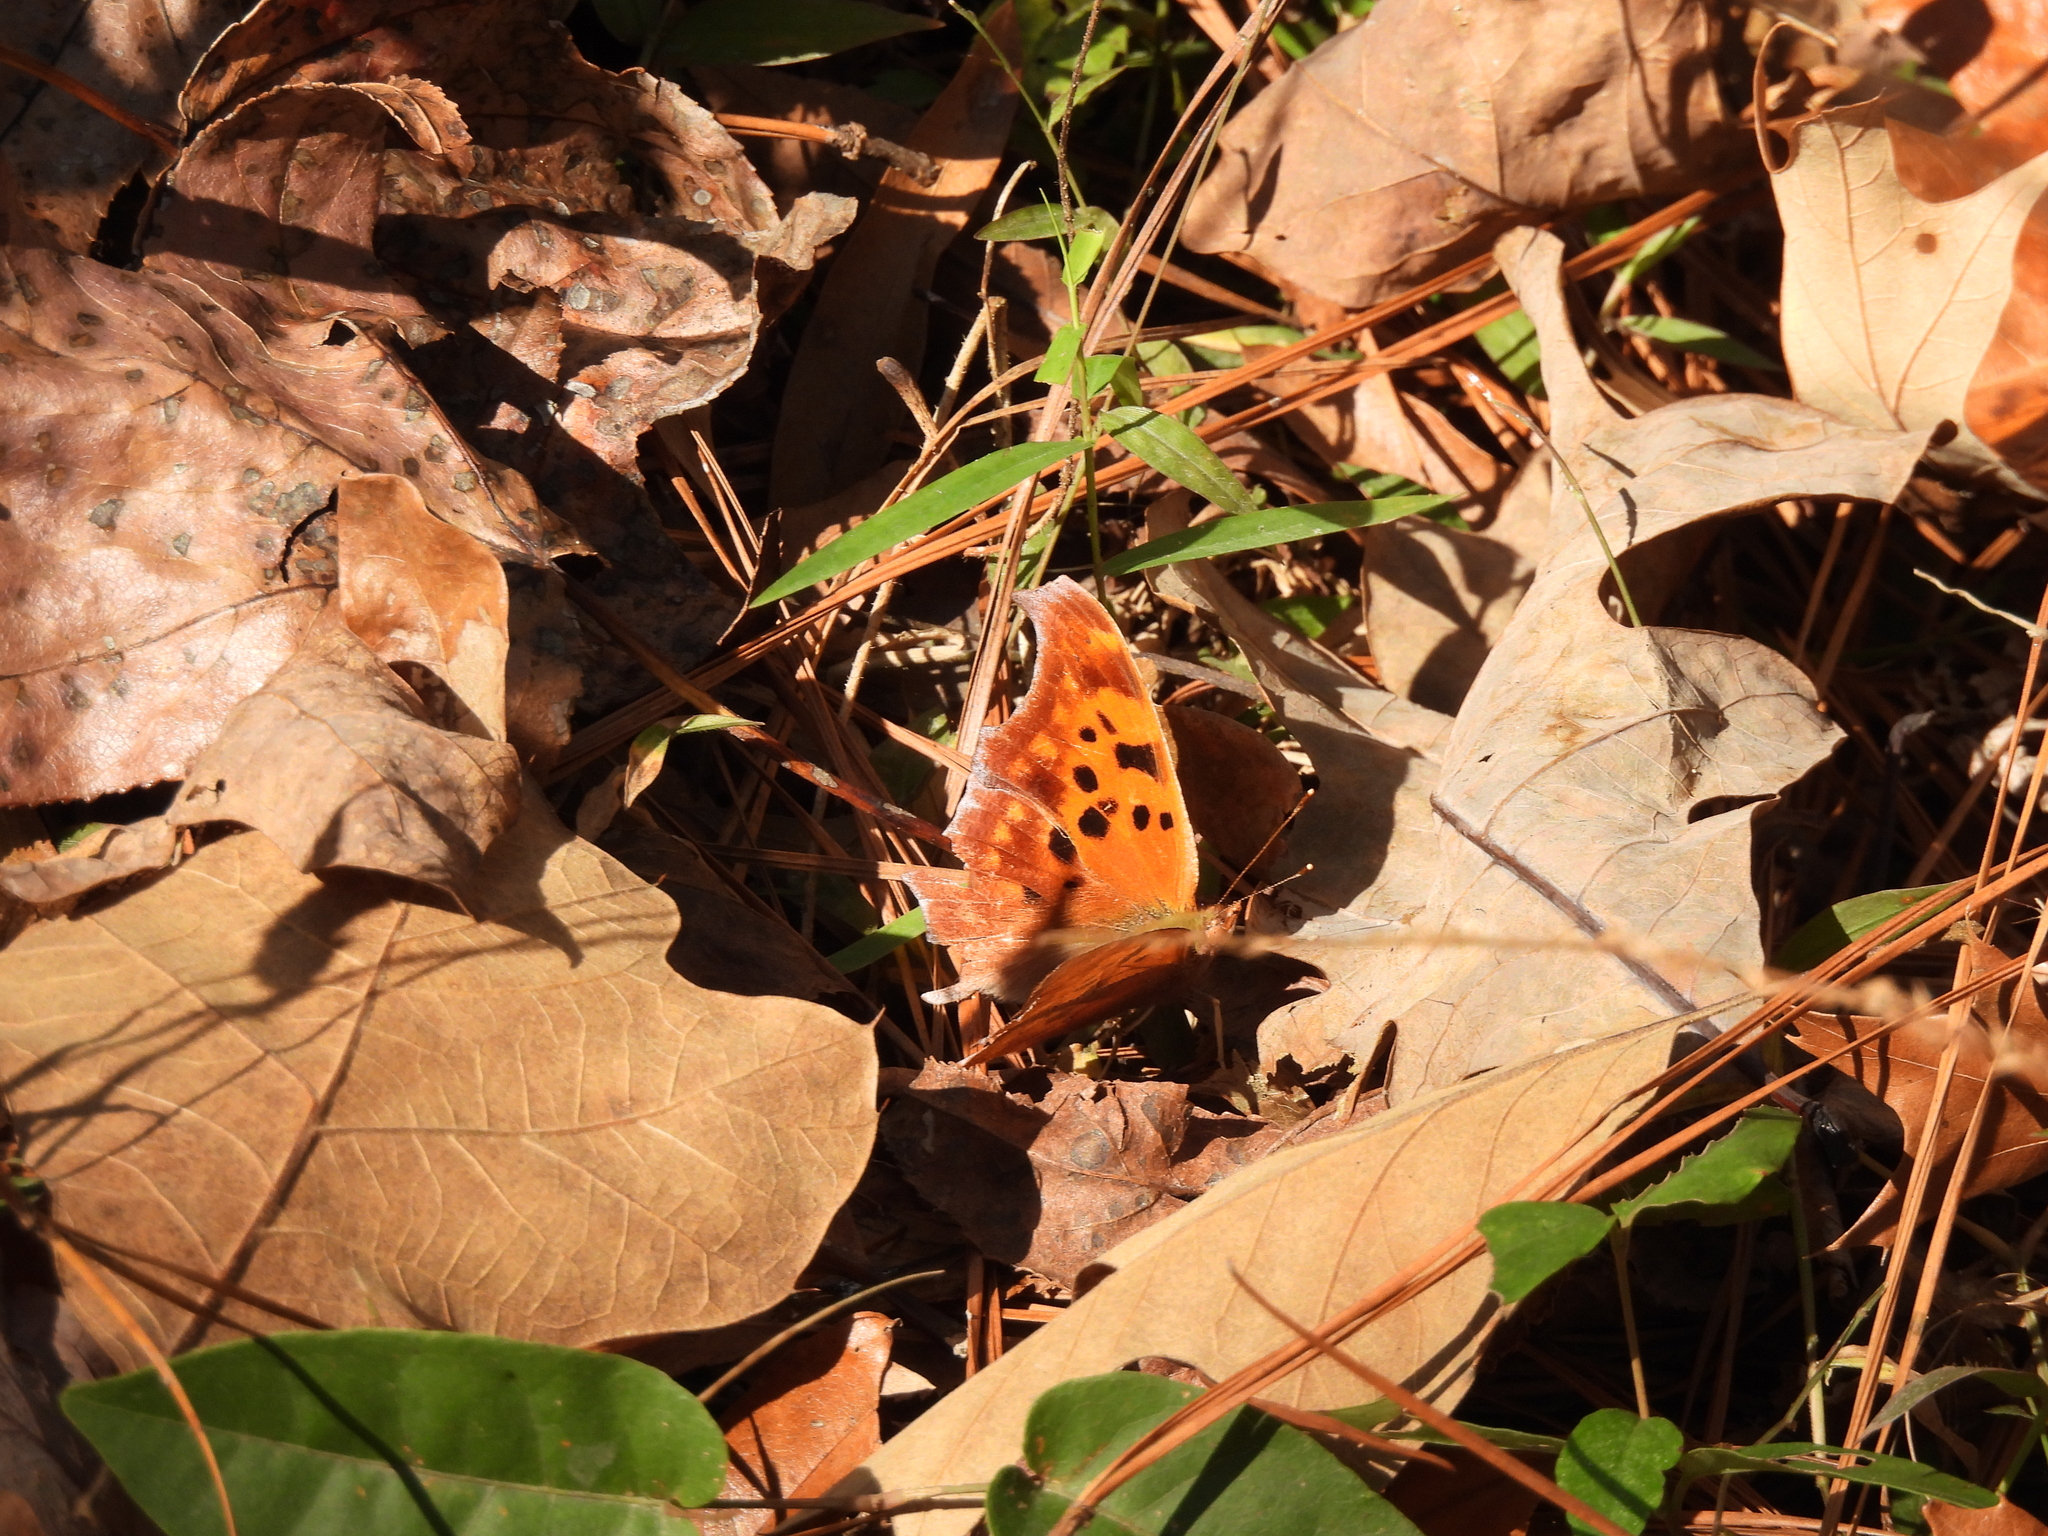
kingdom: Animalia
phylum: Arthropoda
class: Insecta
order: Lepidoptera
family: Nymphalidae
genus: Polygonia
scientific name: Polygonia interrogationis
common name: Question mark
